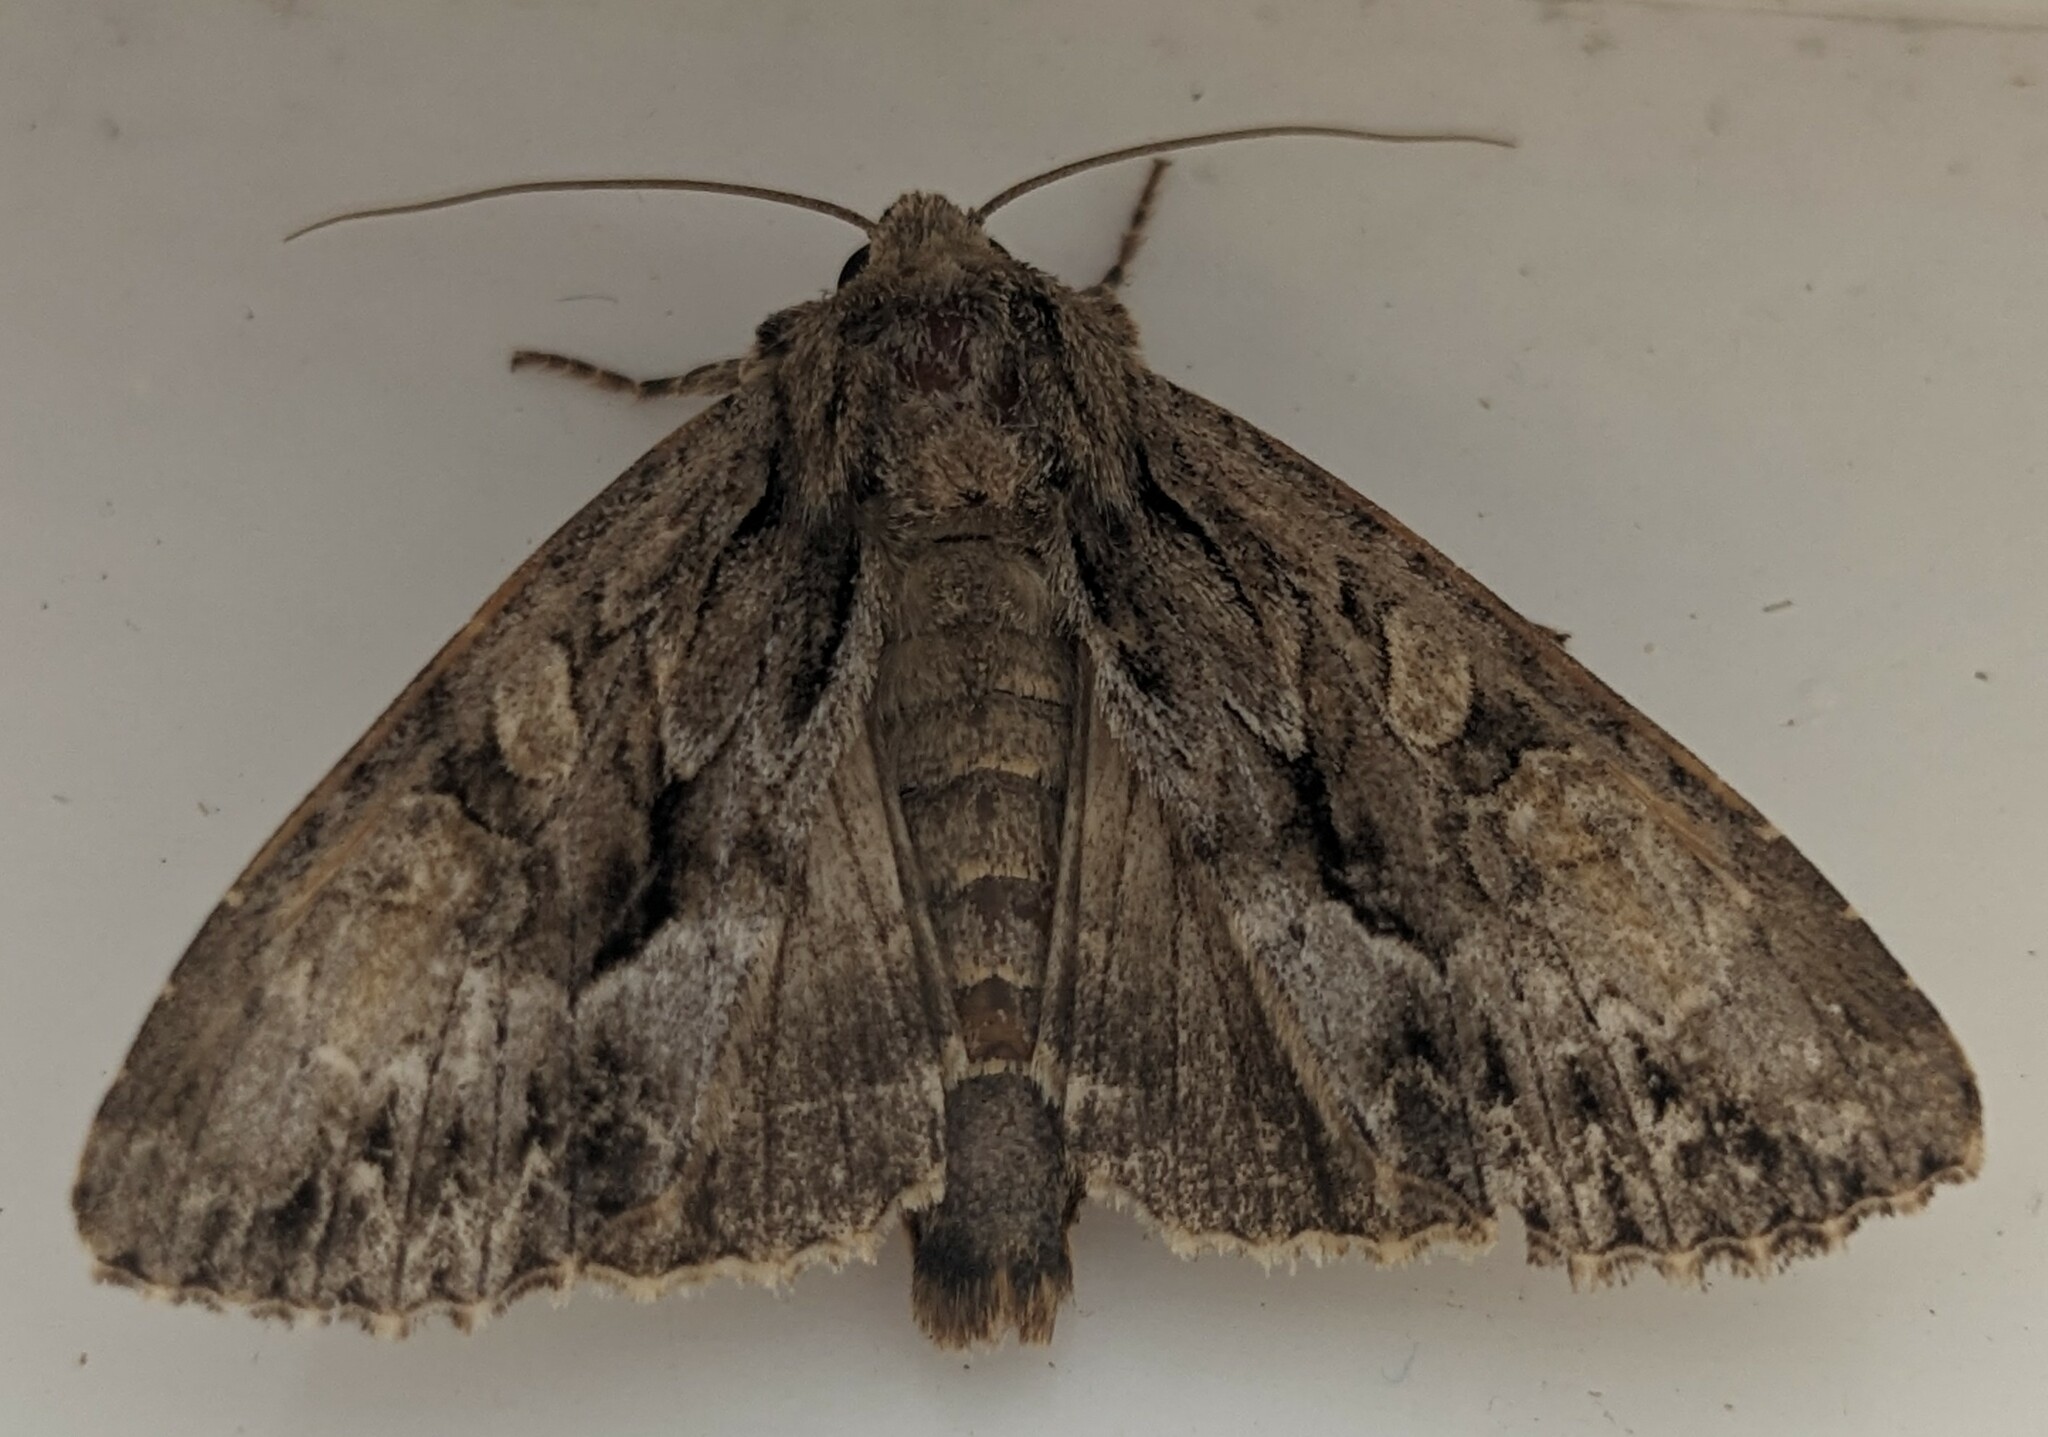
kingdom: Animalia
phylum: Arthropoda
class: Insecta
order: Lepidoptera
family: Noctuidae
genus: Apamea
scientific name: Apamea monoglypha
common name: Dark arches
